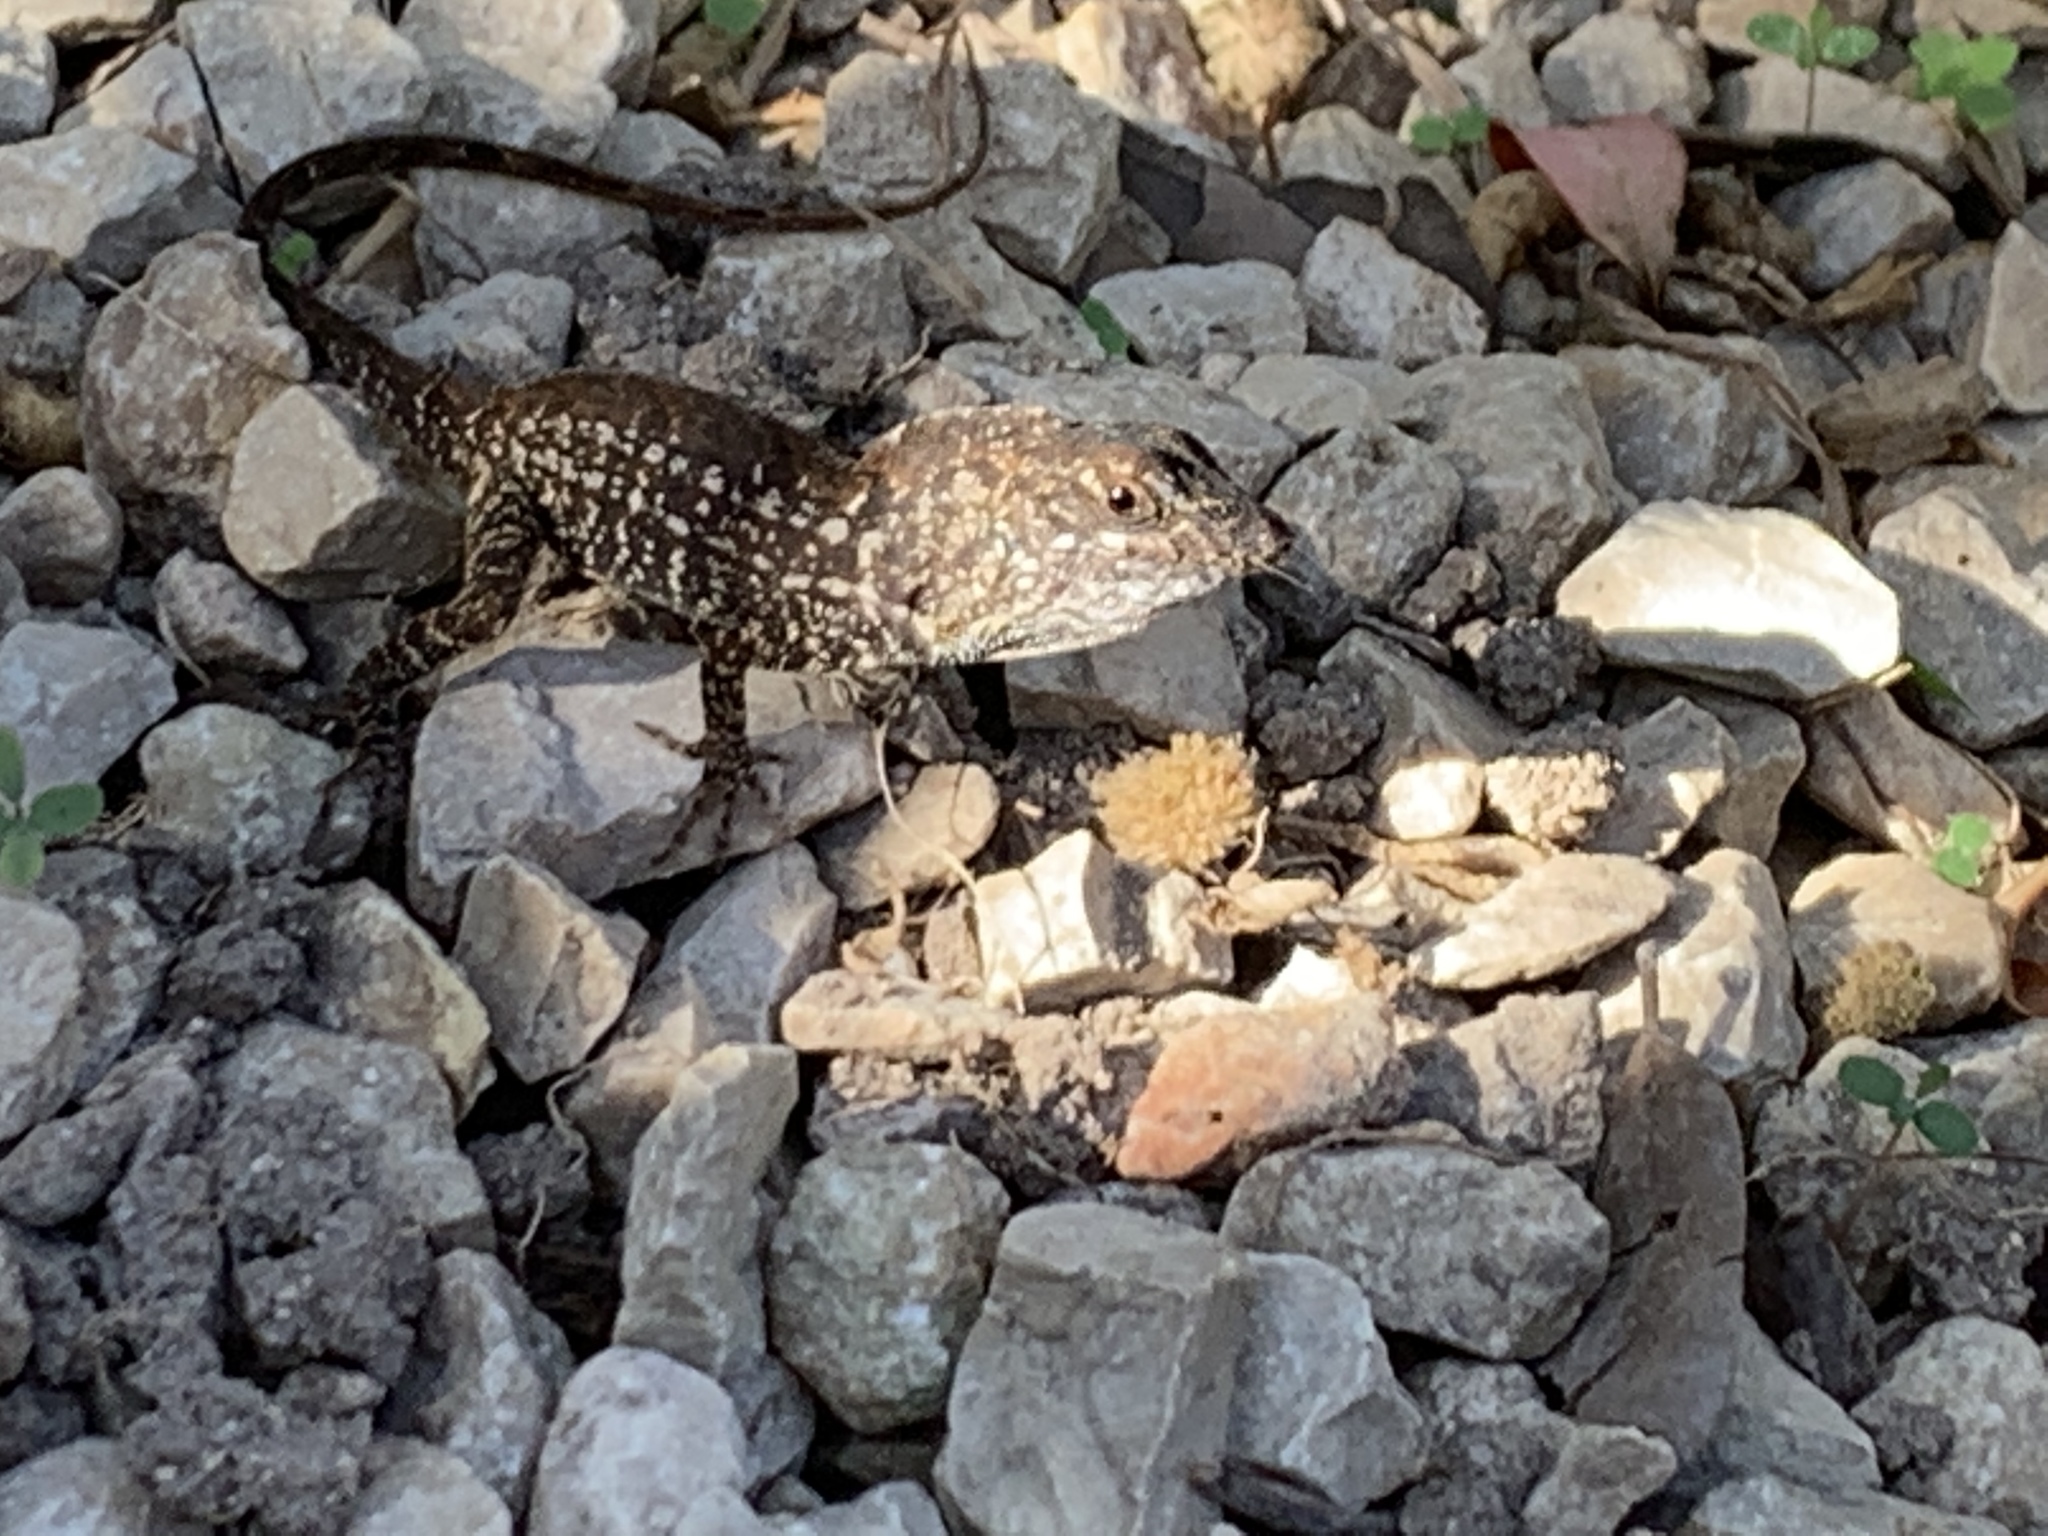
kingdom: Animalia
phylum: Chordata
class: Squamata
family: Dactyloidae
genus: Anolis
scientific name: Anolis sagrei
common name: Brown anole
